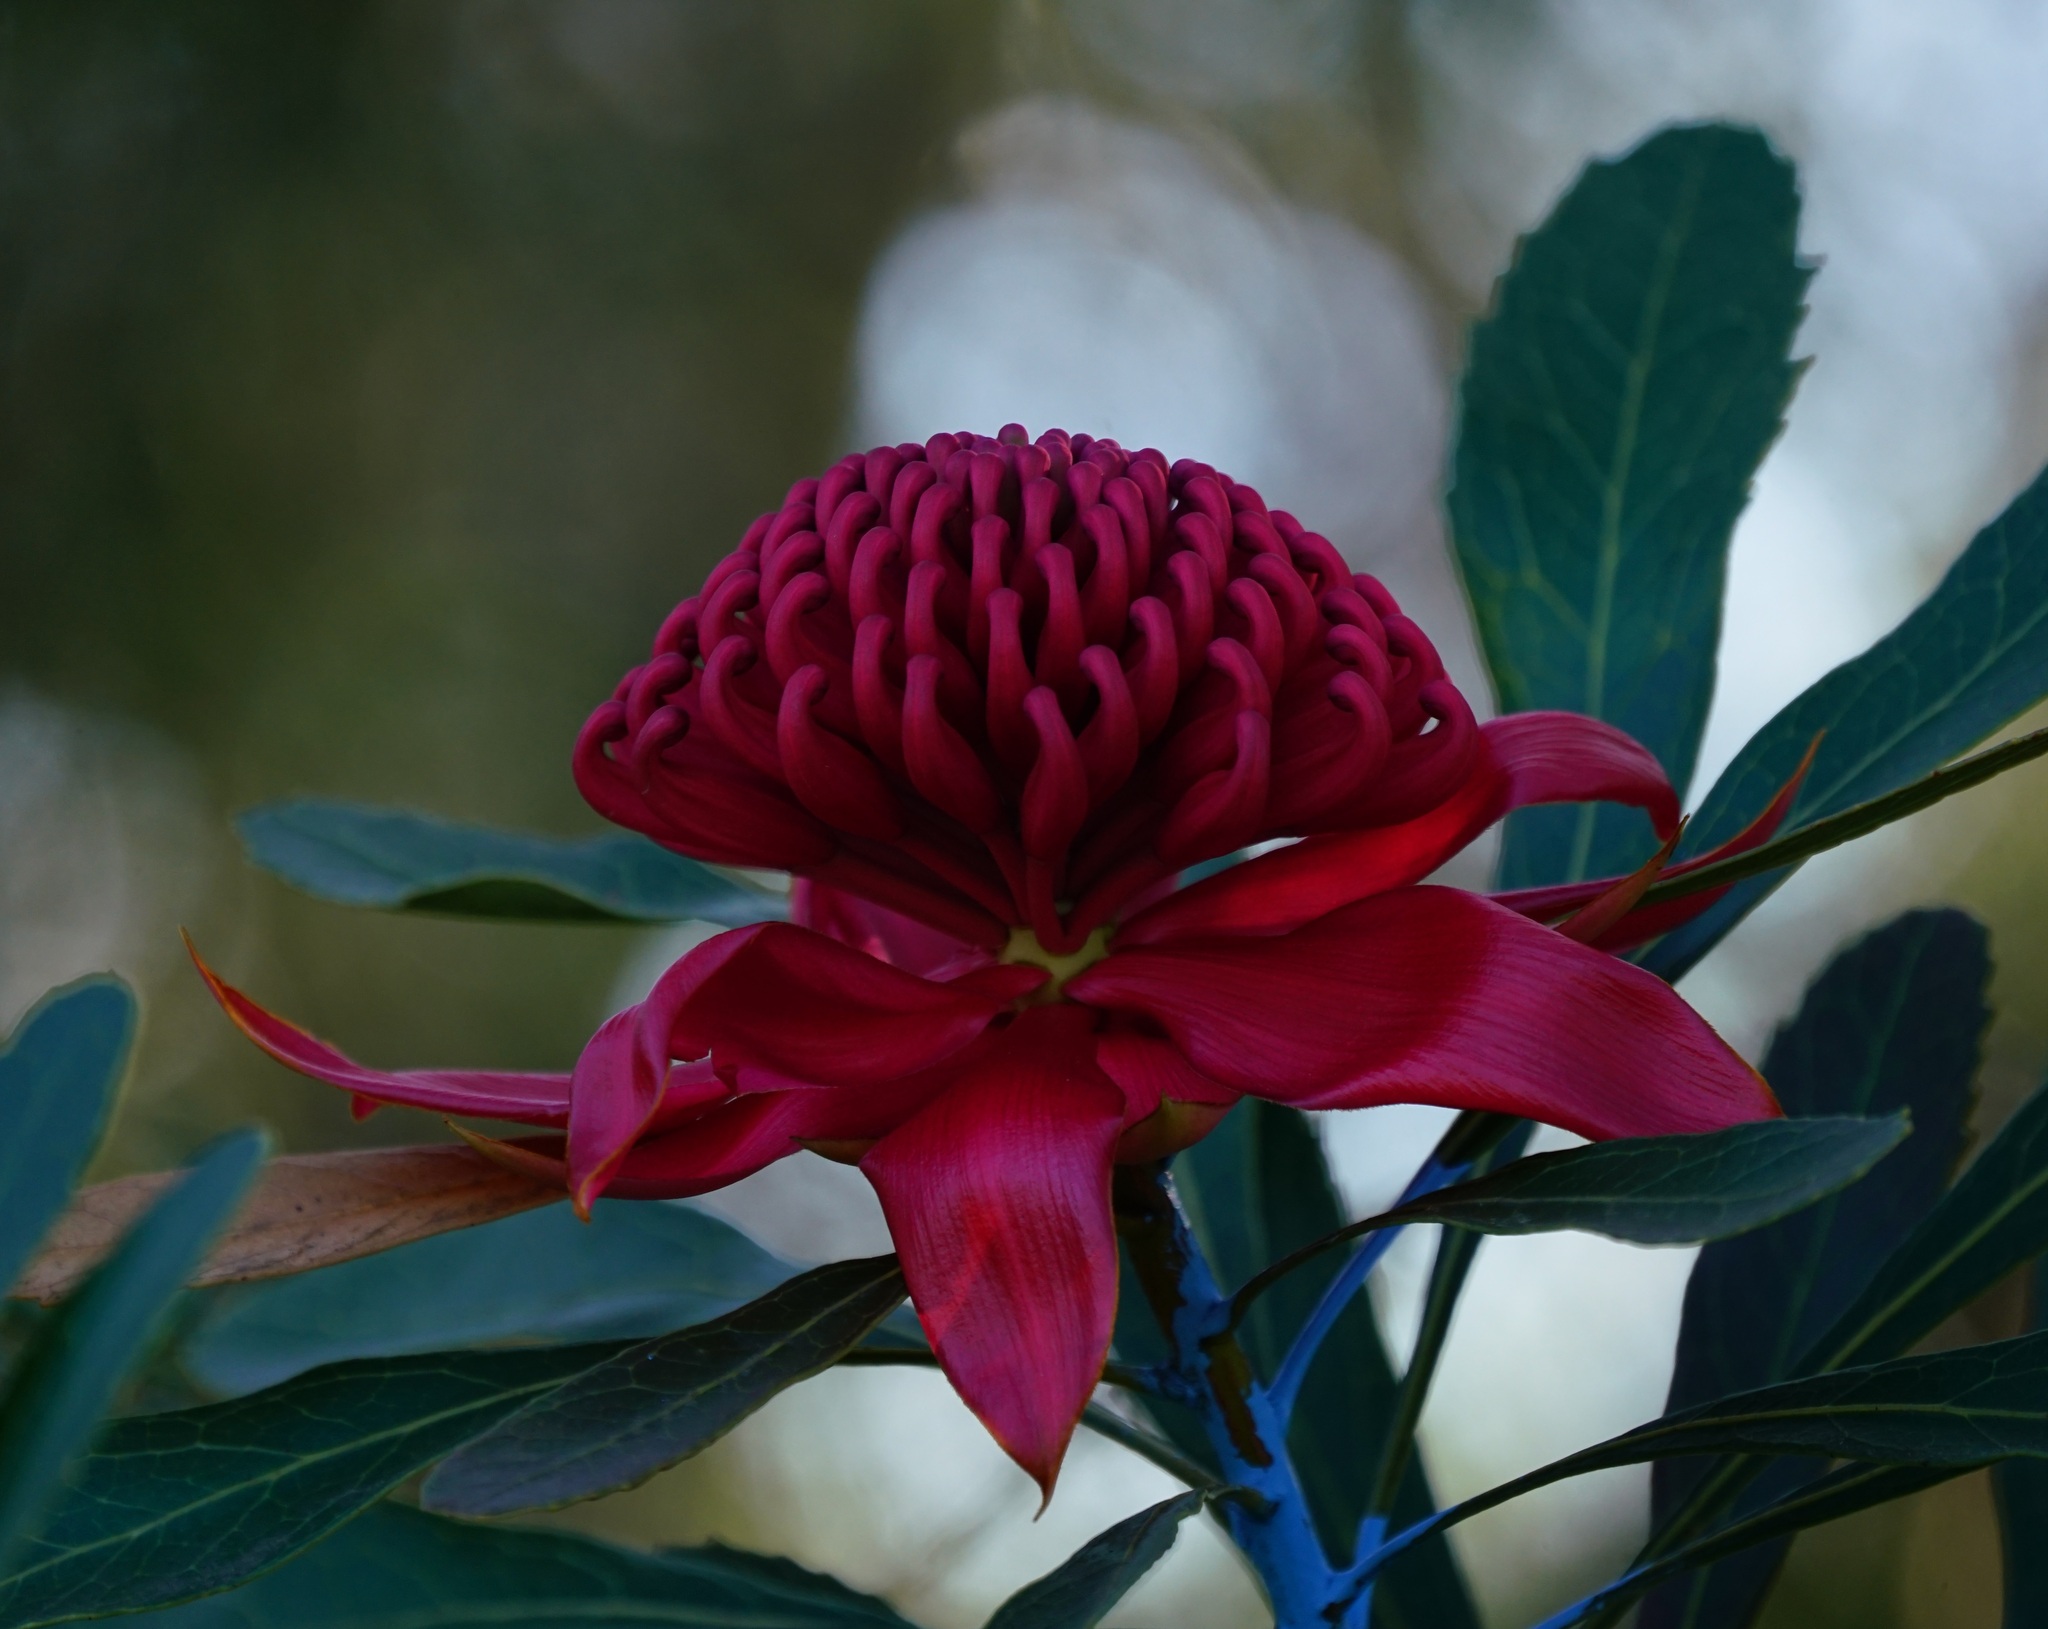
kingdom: Plantae
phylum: Tracheophyta
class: Magnoliopsida
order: Proteales
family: Proteaceae
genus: Telopea
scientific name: Telopea speciosissima
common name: New south wales waratah
